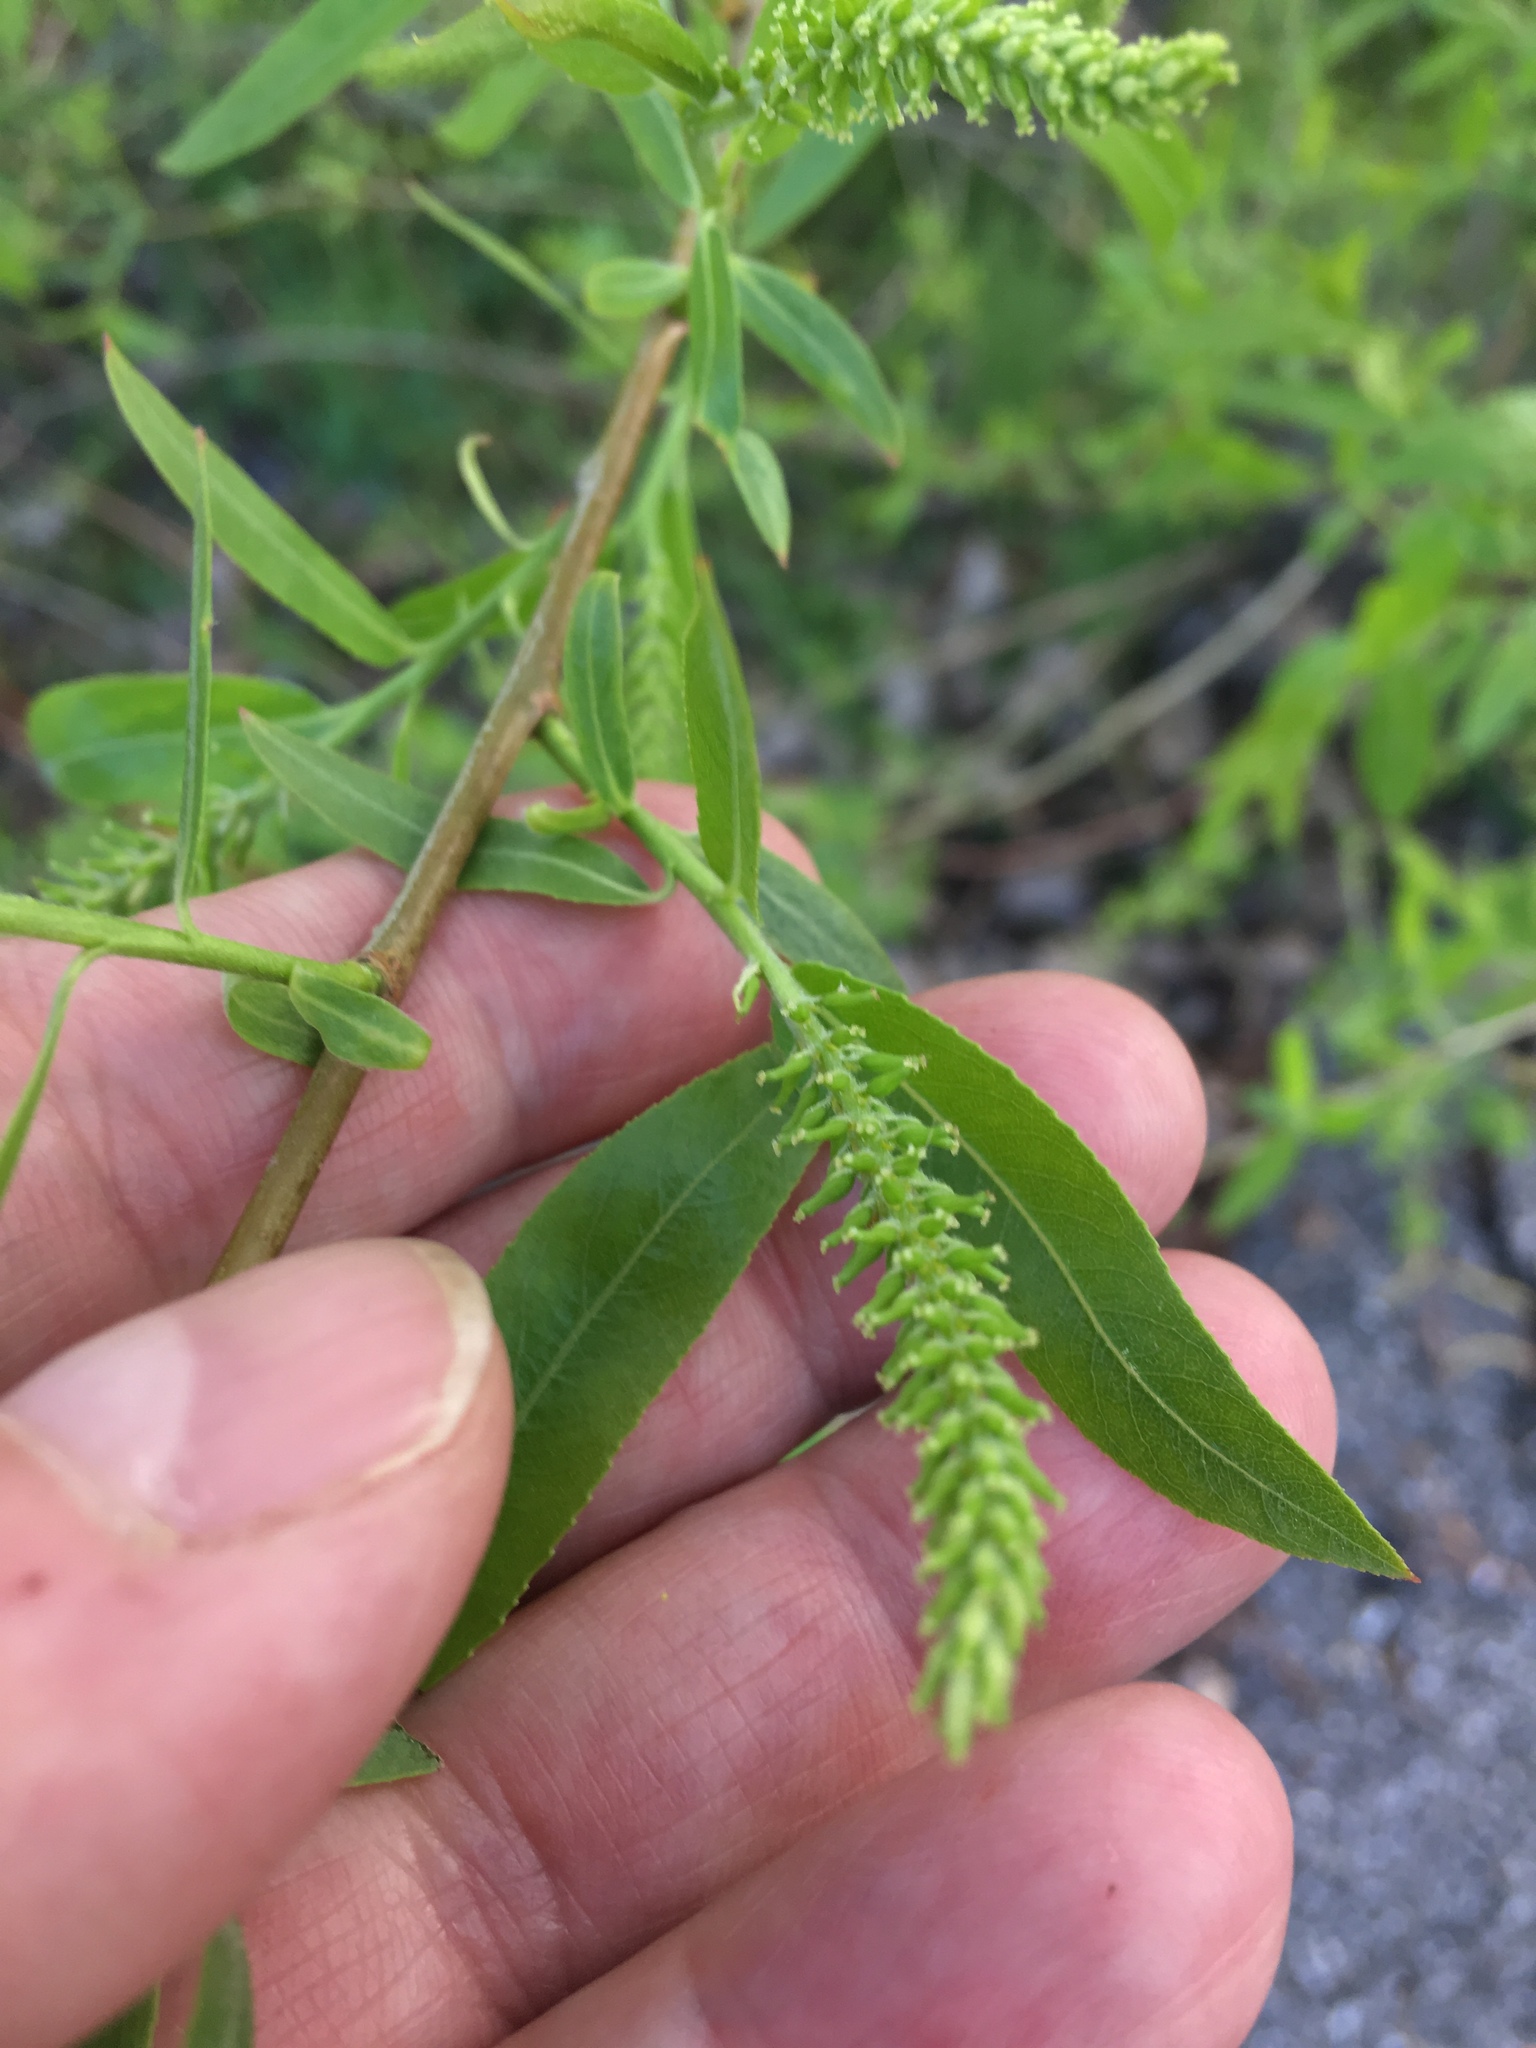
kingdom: Plantae
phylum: Tracheophyta
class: Magnoliopsida
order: Malpighiales
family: Salicaceae
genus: Salix
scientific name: Salix babylonica
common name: Weeping willow
